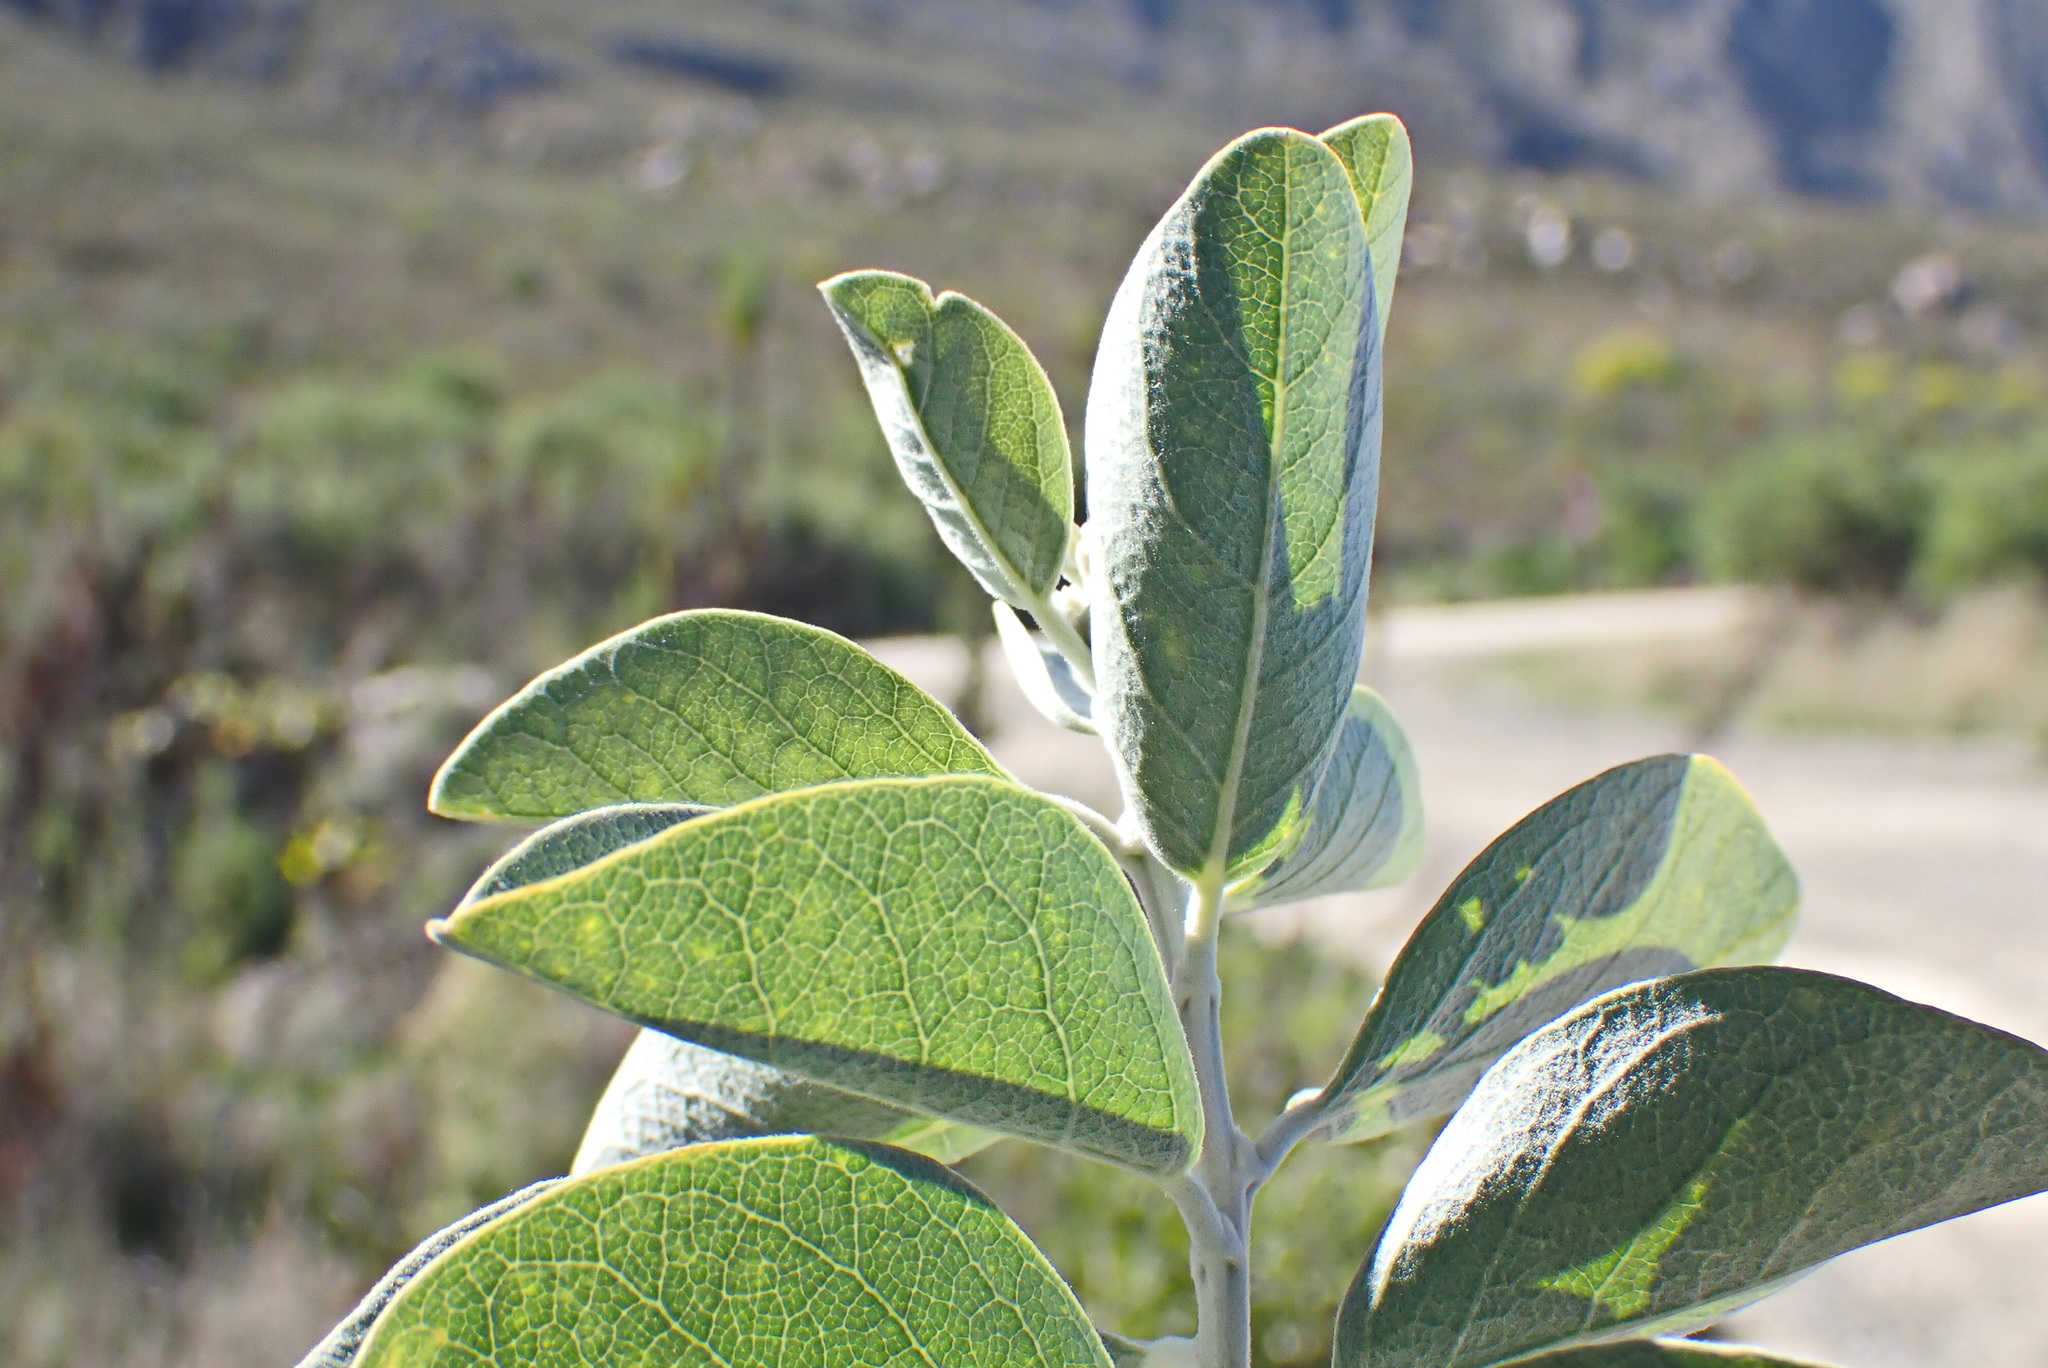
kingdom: Plantae
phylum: Tracheophyta
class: Magnoliopsida
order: Fabales
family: Fabaceae
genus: Stirtonanthus
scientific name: Stirtonanthus taylorianus
